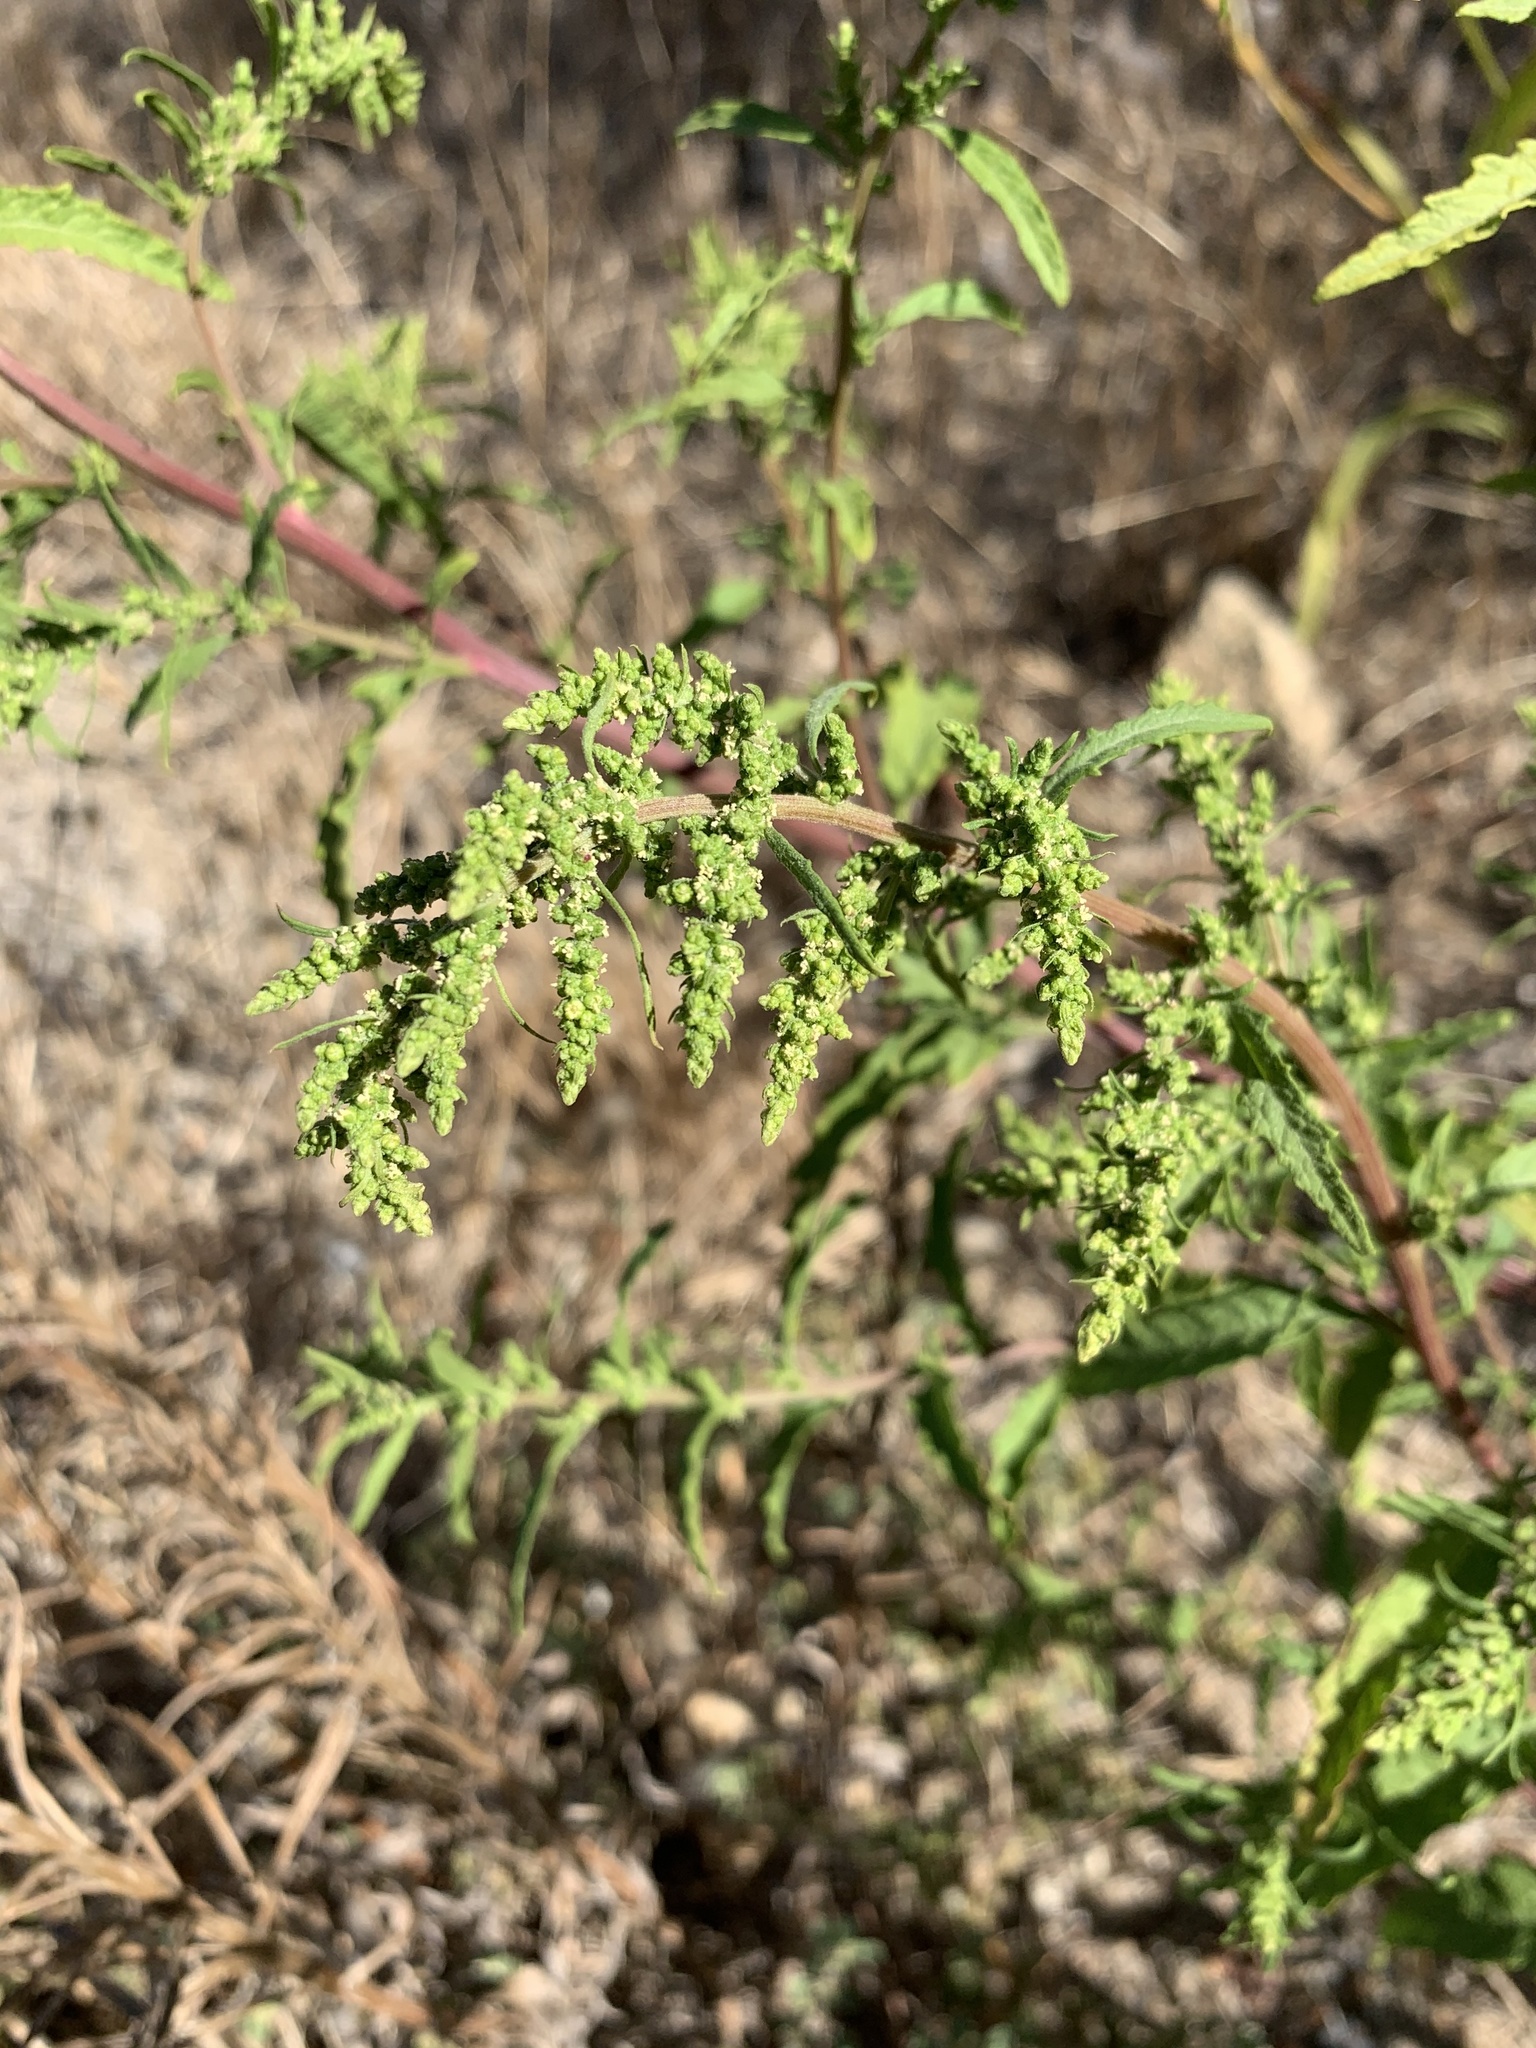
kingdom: Plantae
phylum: Tracheophyta
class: Magnoliopsida
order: Caryophyllales
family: Amaranthaceae
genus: Dysphania
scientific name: Dysphania ambrosioides
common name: Wormseed
